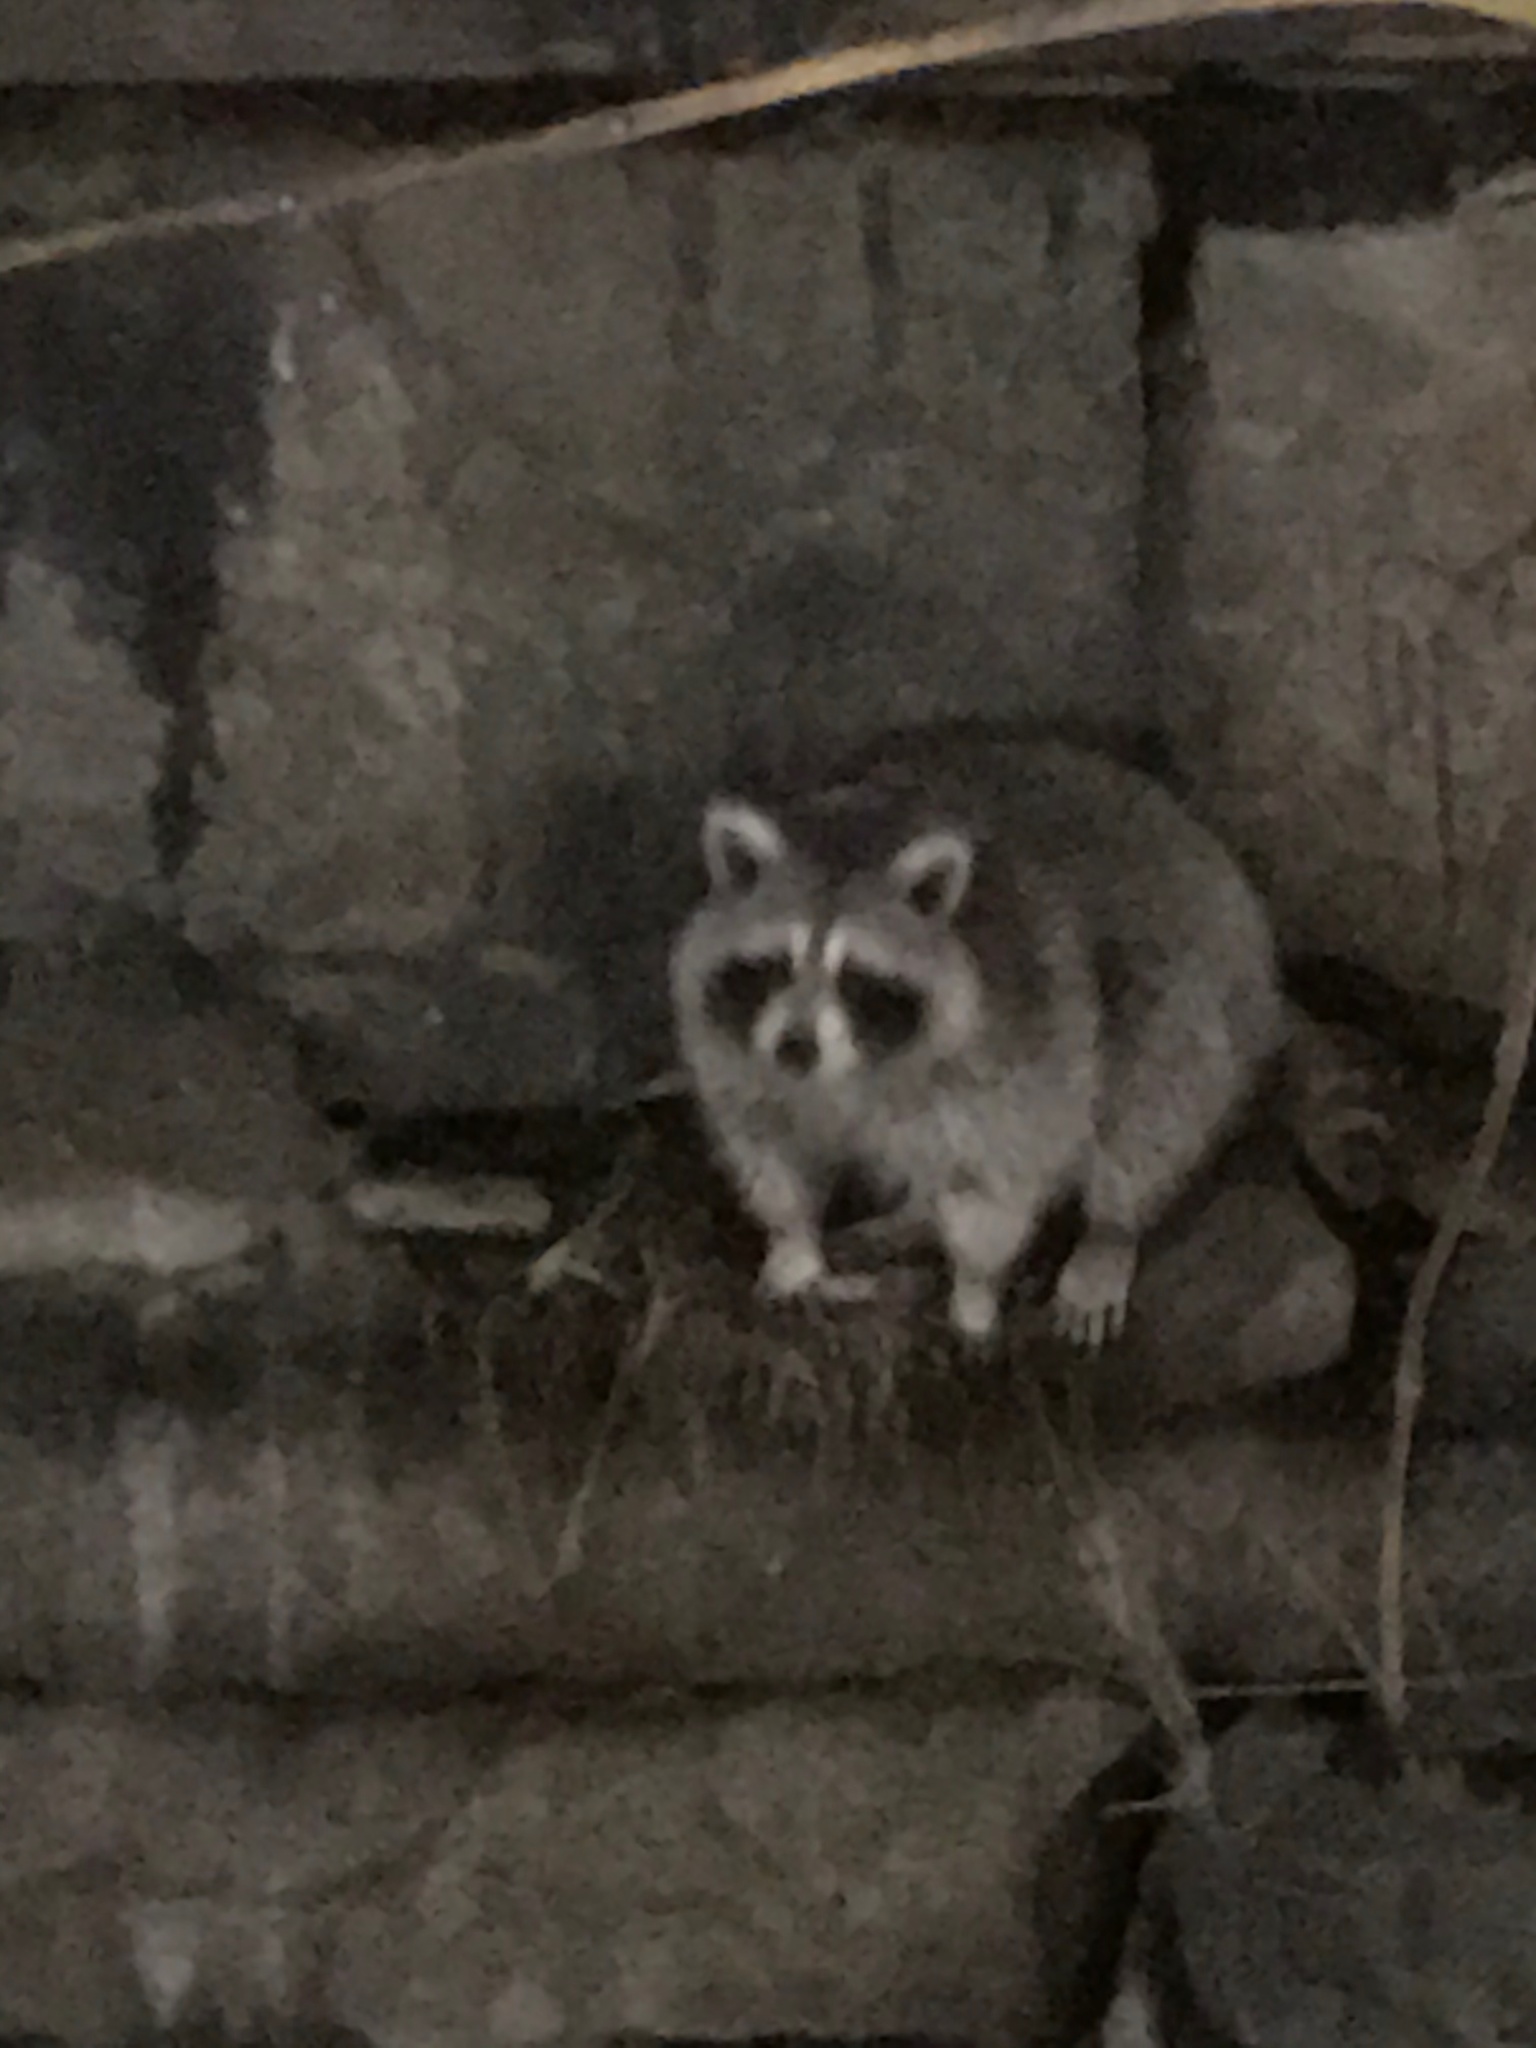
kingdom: Animalia
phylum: Chordata
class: Mammalia
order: Carnivora
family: Procyonidae
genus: Procyon
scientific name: Procyon lotor
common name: Raccoon
